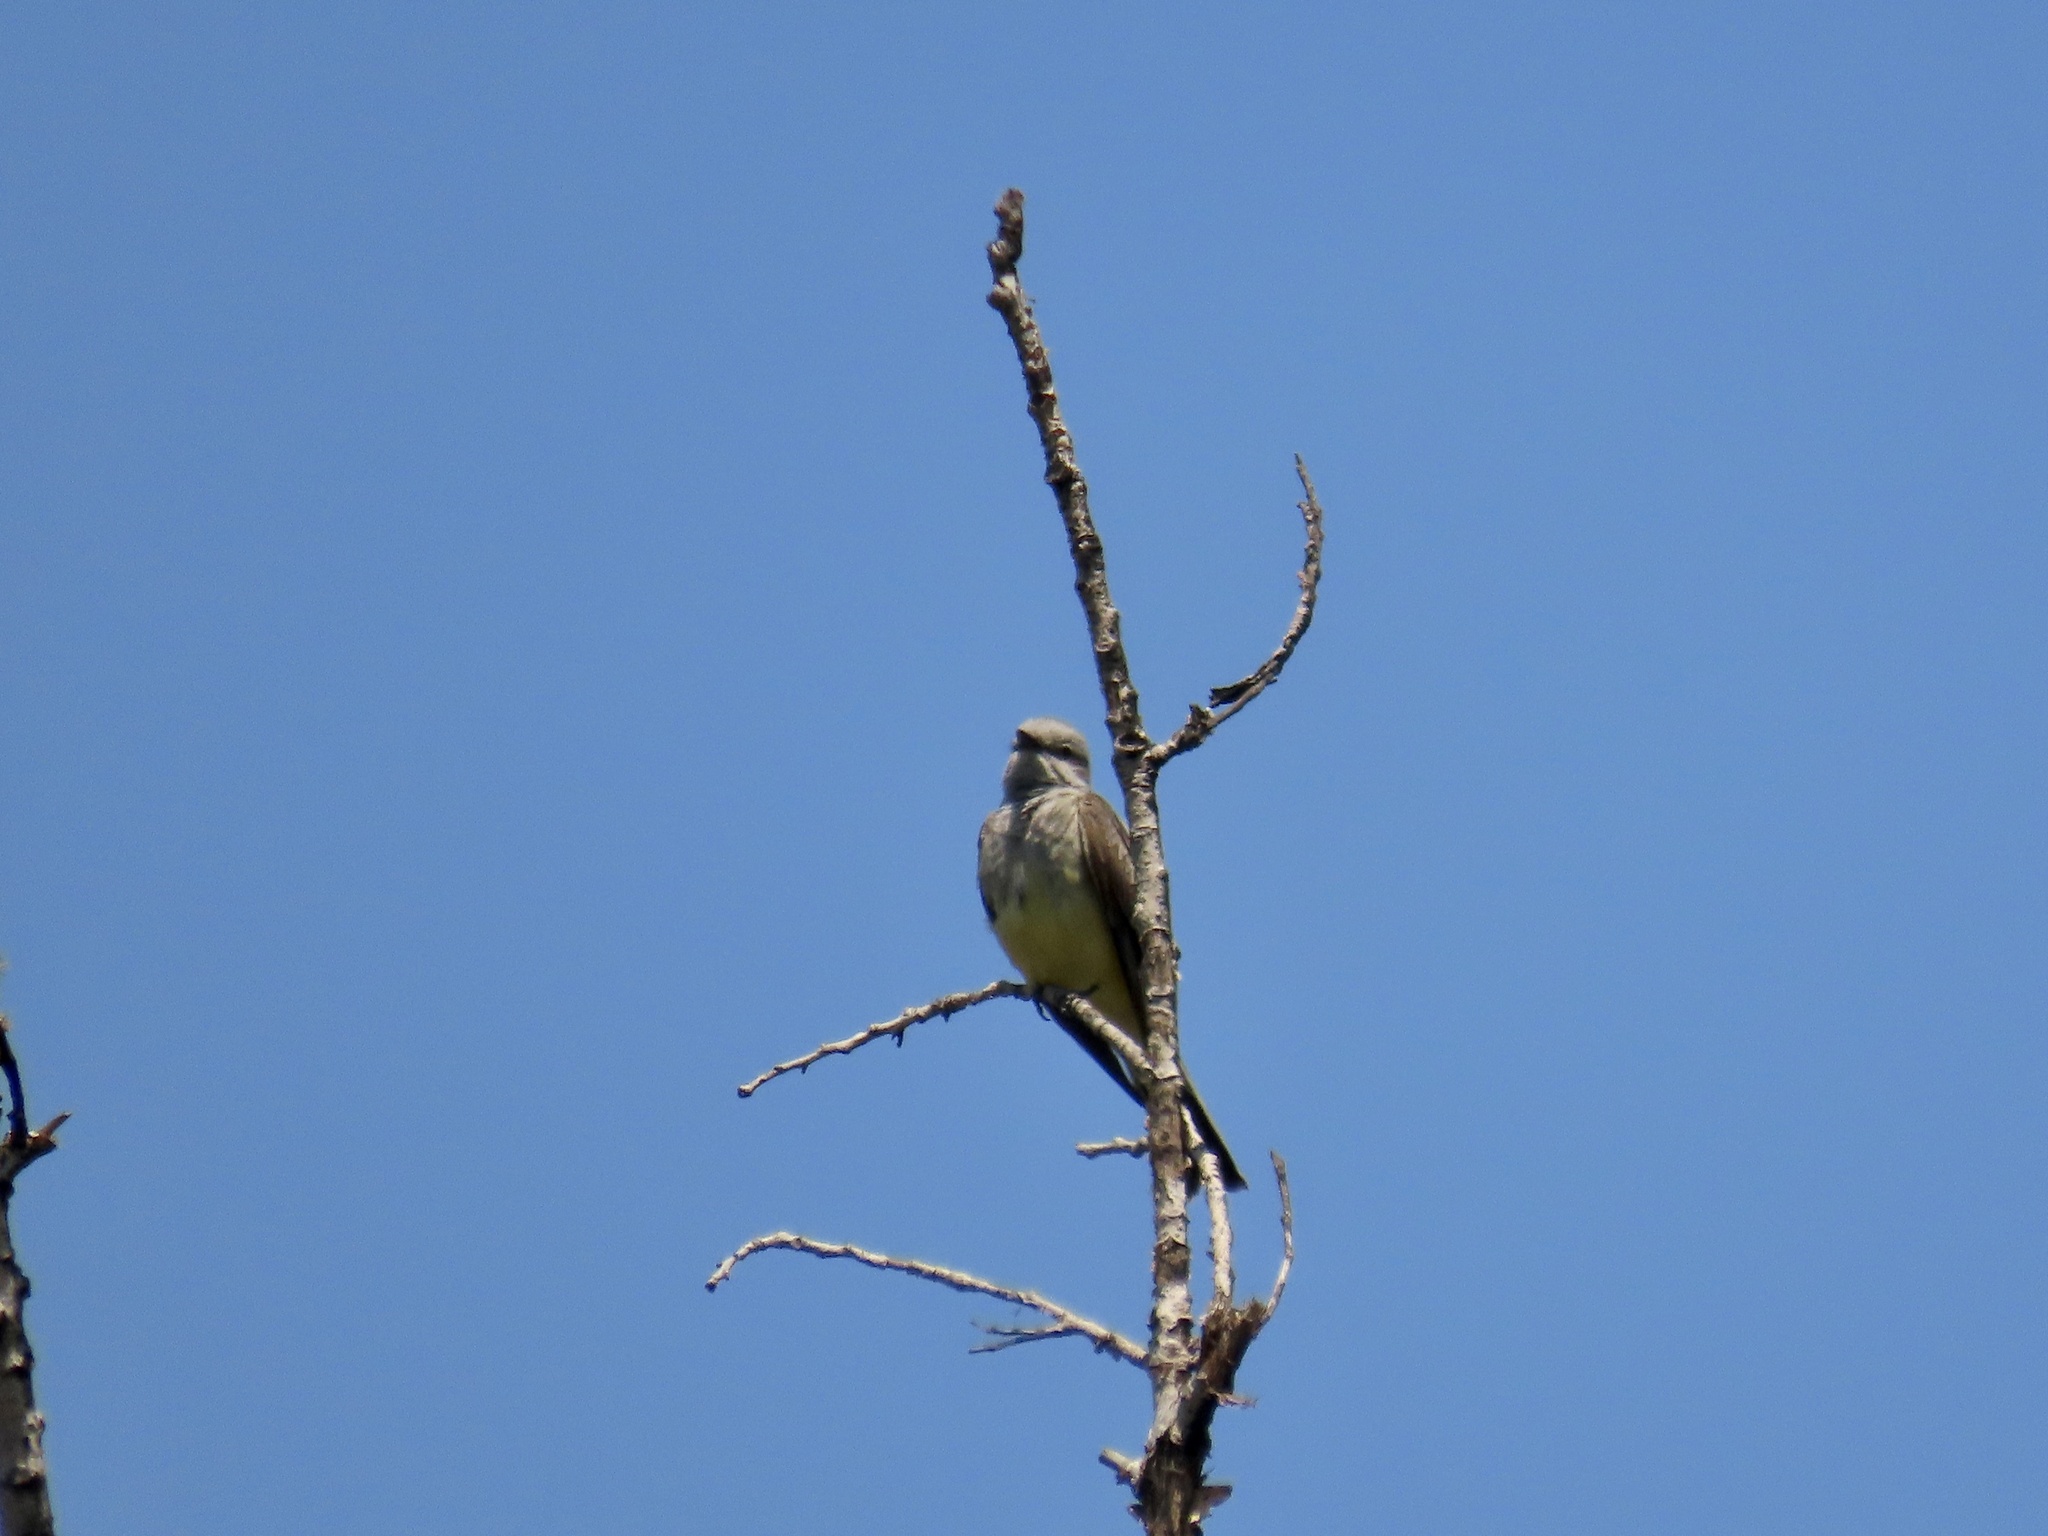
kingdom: Animalia
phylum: Chordata
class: Aves
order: Passeriformes
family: Tyrannidae
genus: Tyrannus
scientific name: Tyrannus verticalis
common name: Western kingbird
